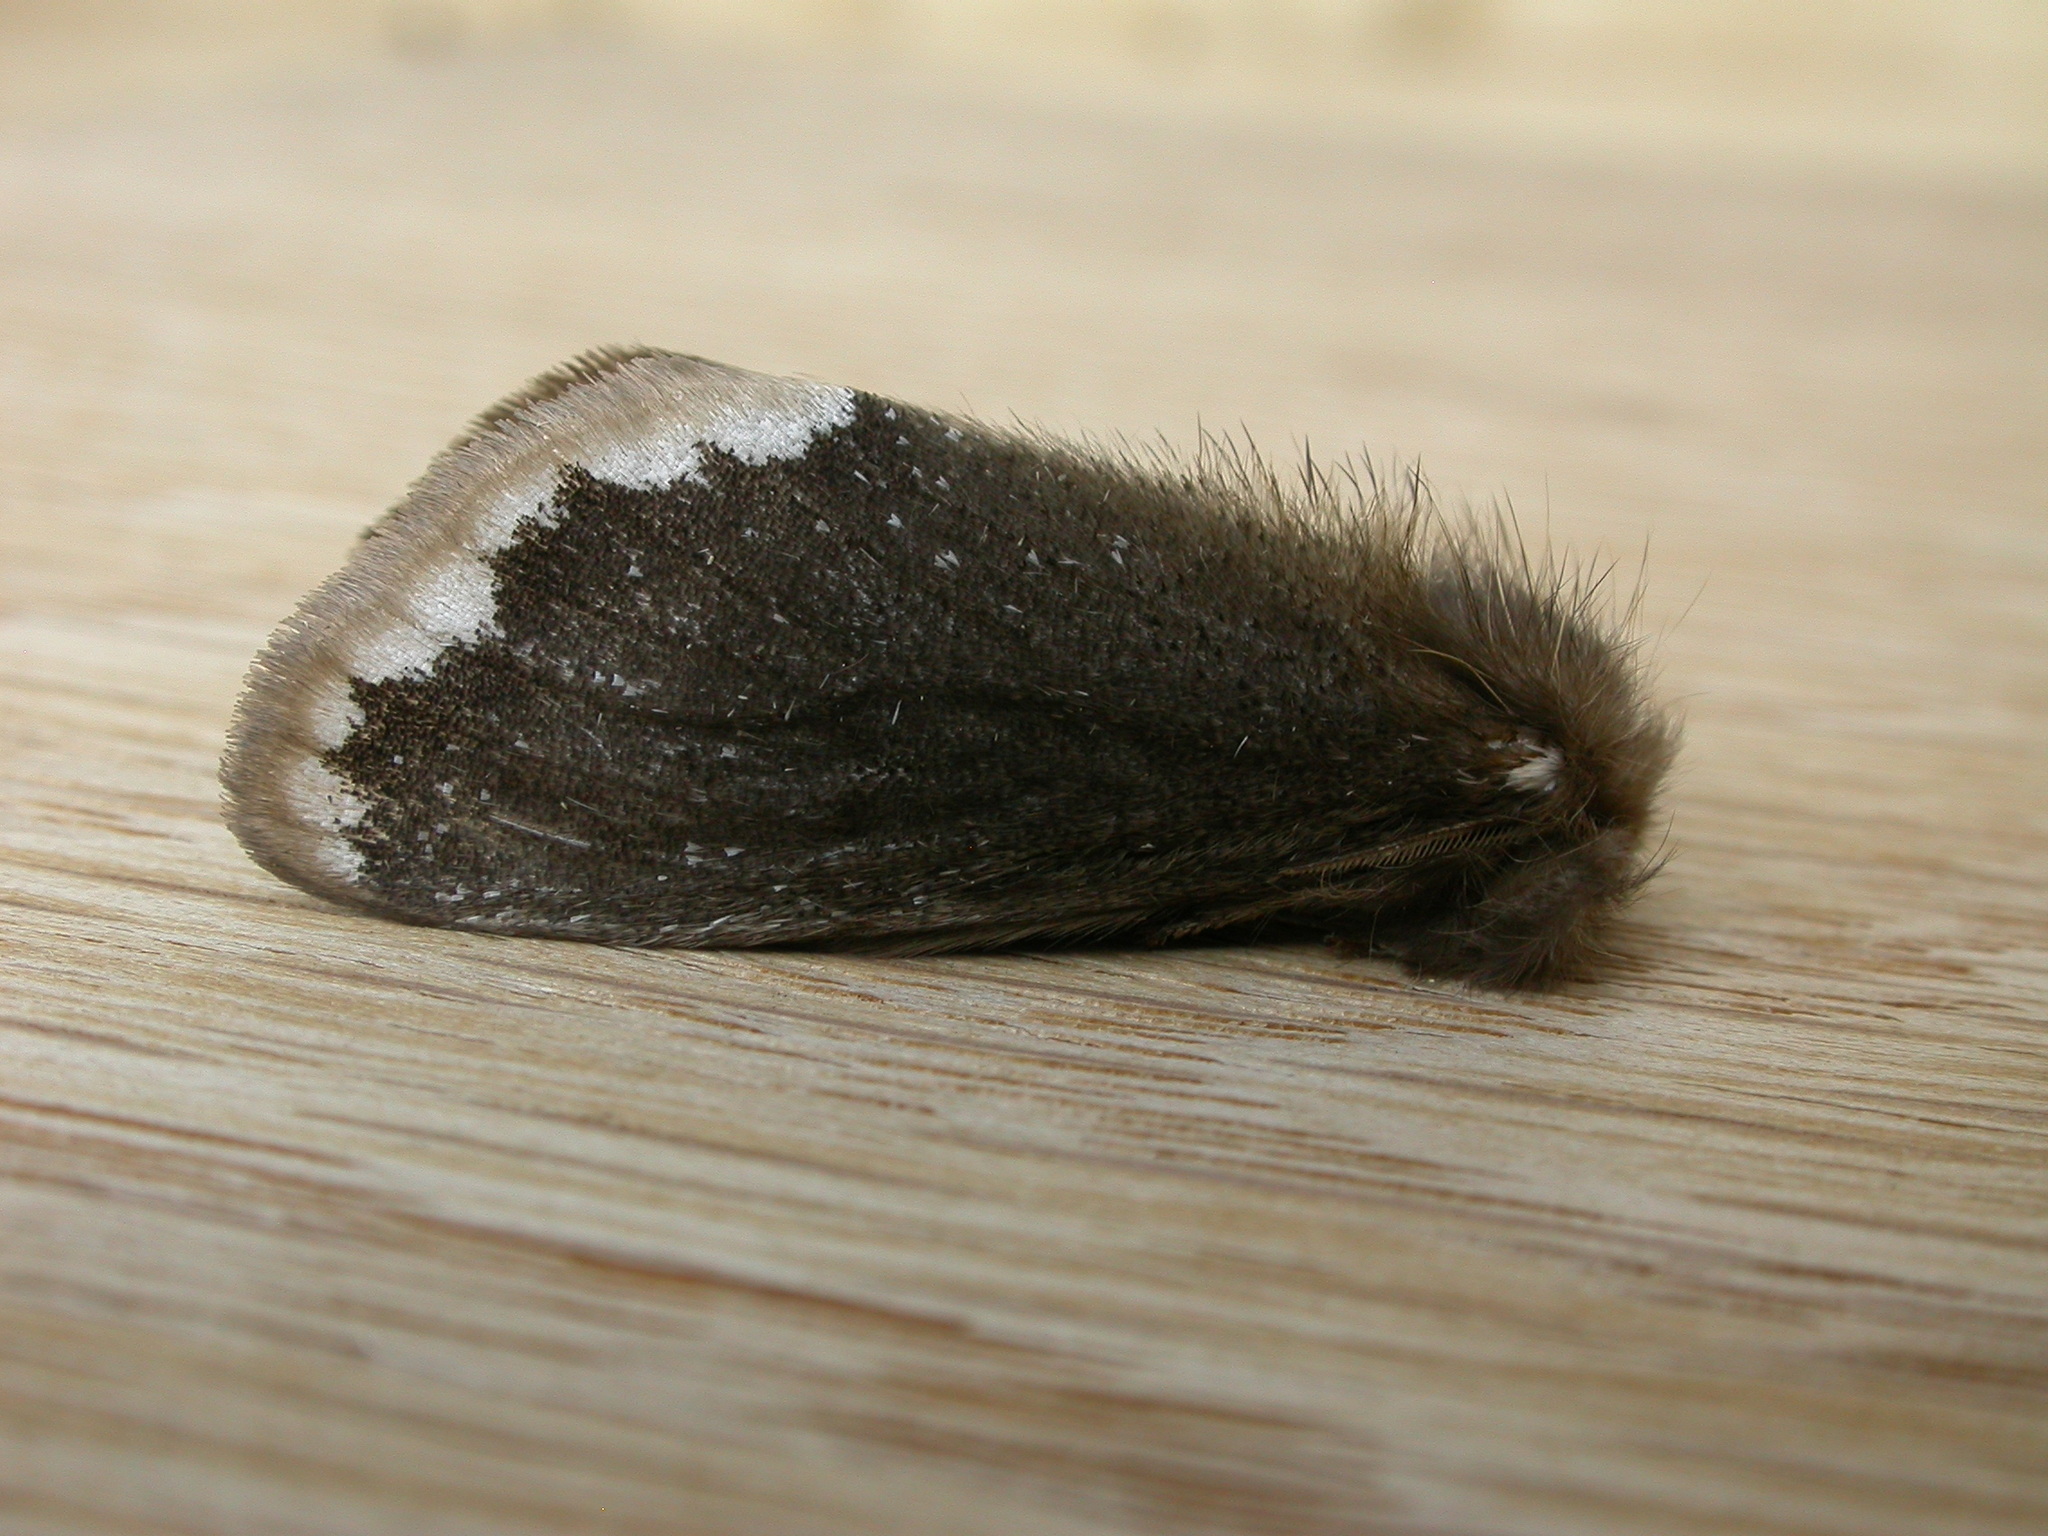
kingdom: Animalia
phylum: Arthropoda
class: Insecta
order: Lepidoptera
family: Erebidae
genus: Euproctis
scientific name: Euproctis
